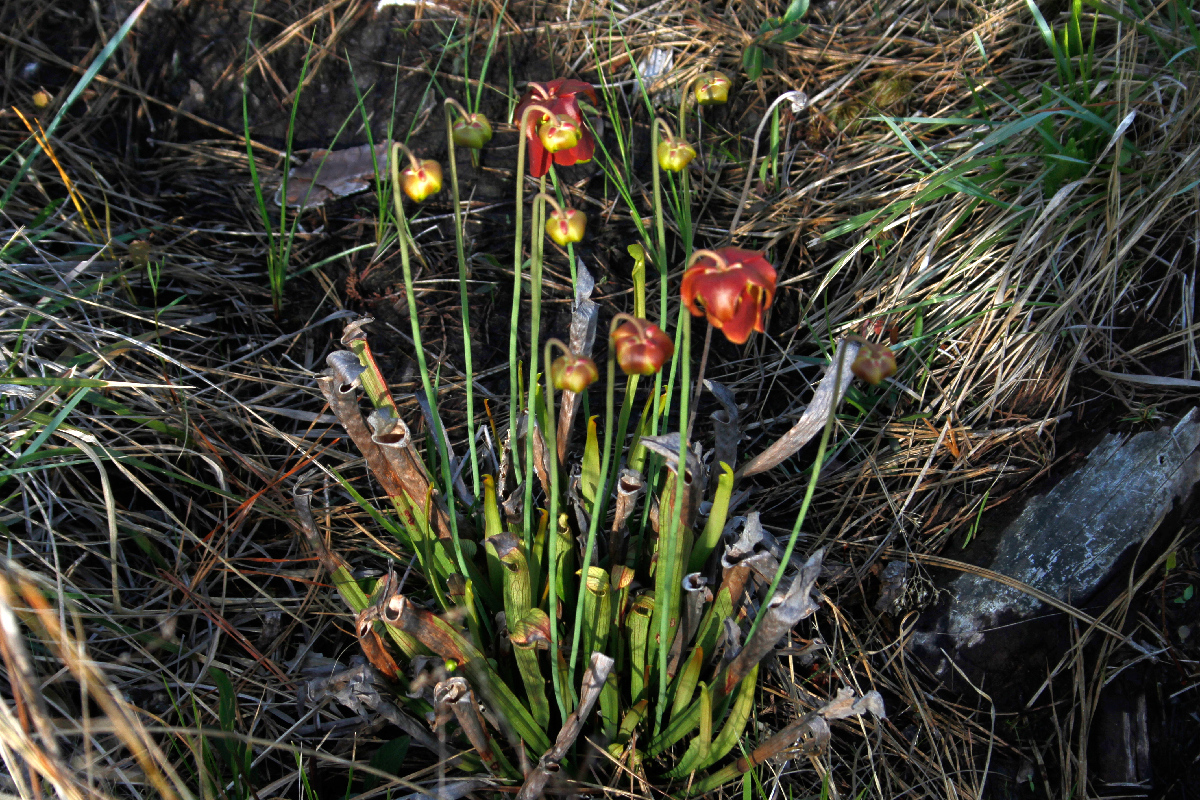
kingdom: Plantae
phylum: Tracheophyta
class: Magnoliopsida
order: Ericales
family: Sarraceniaceae
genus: Sarracenia
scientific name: Sarracenia rubra
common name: Sweet pitcherplant
